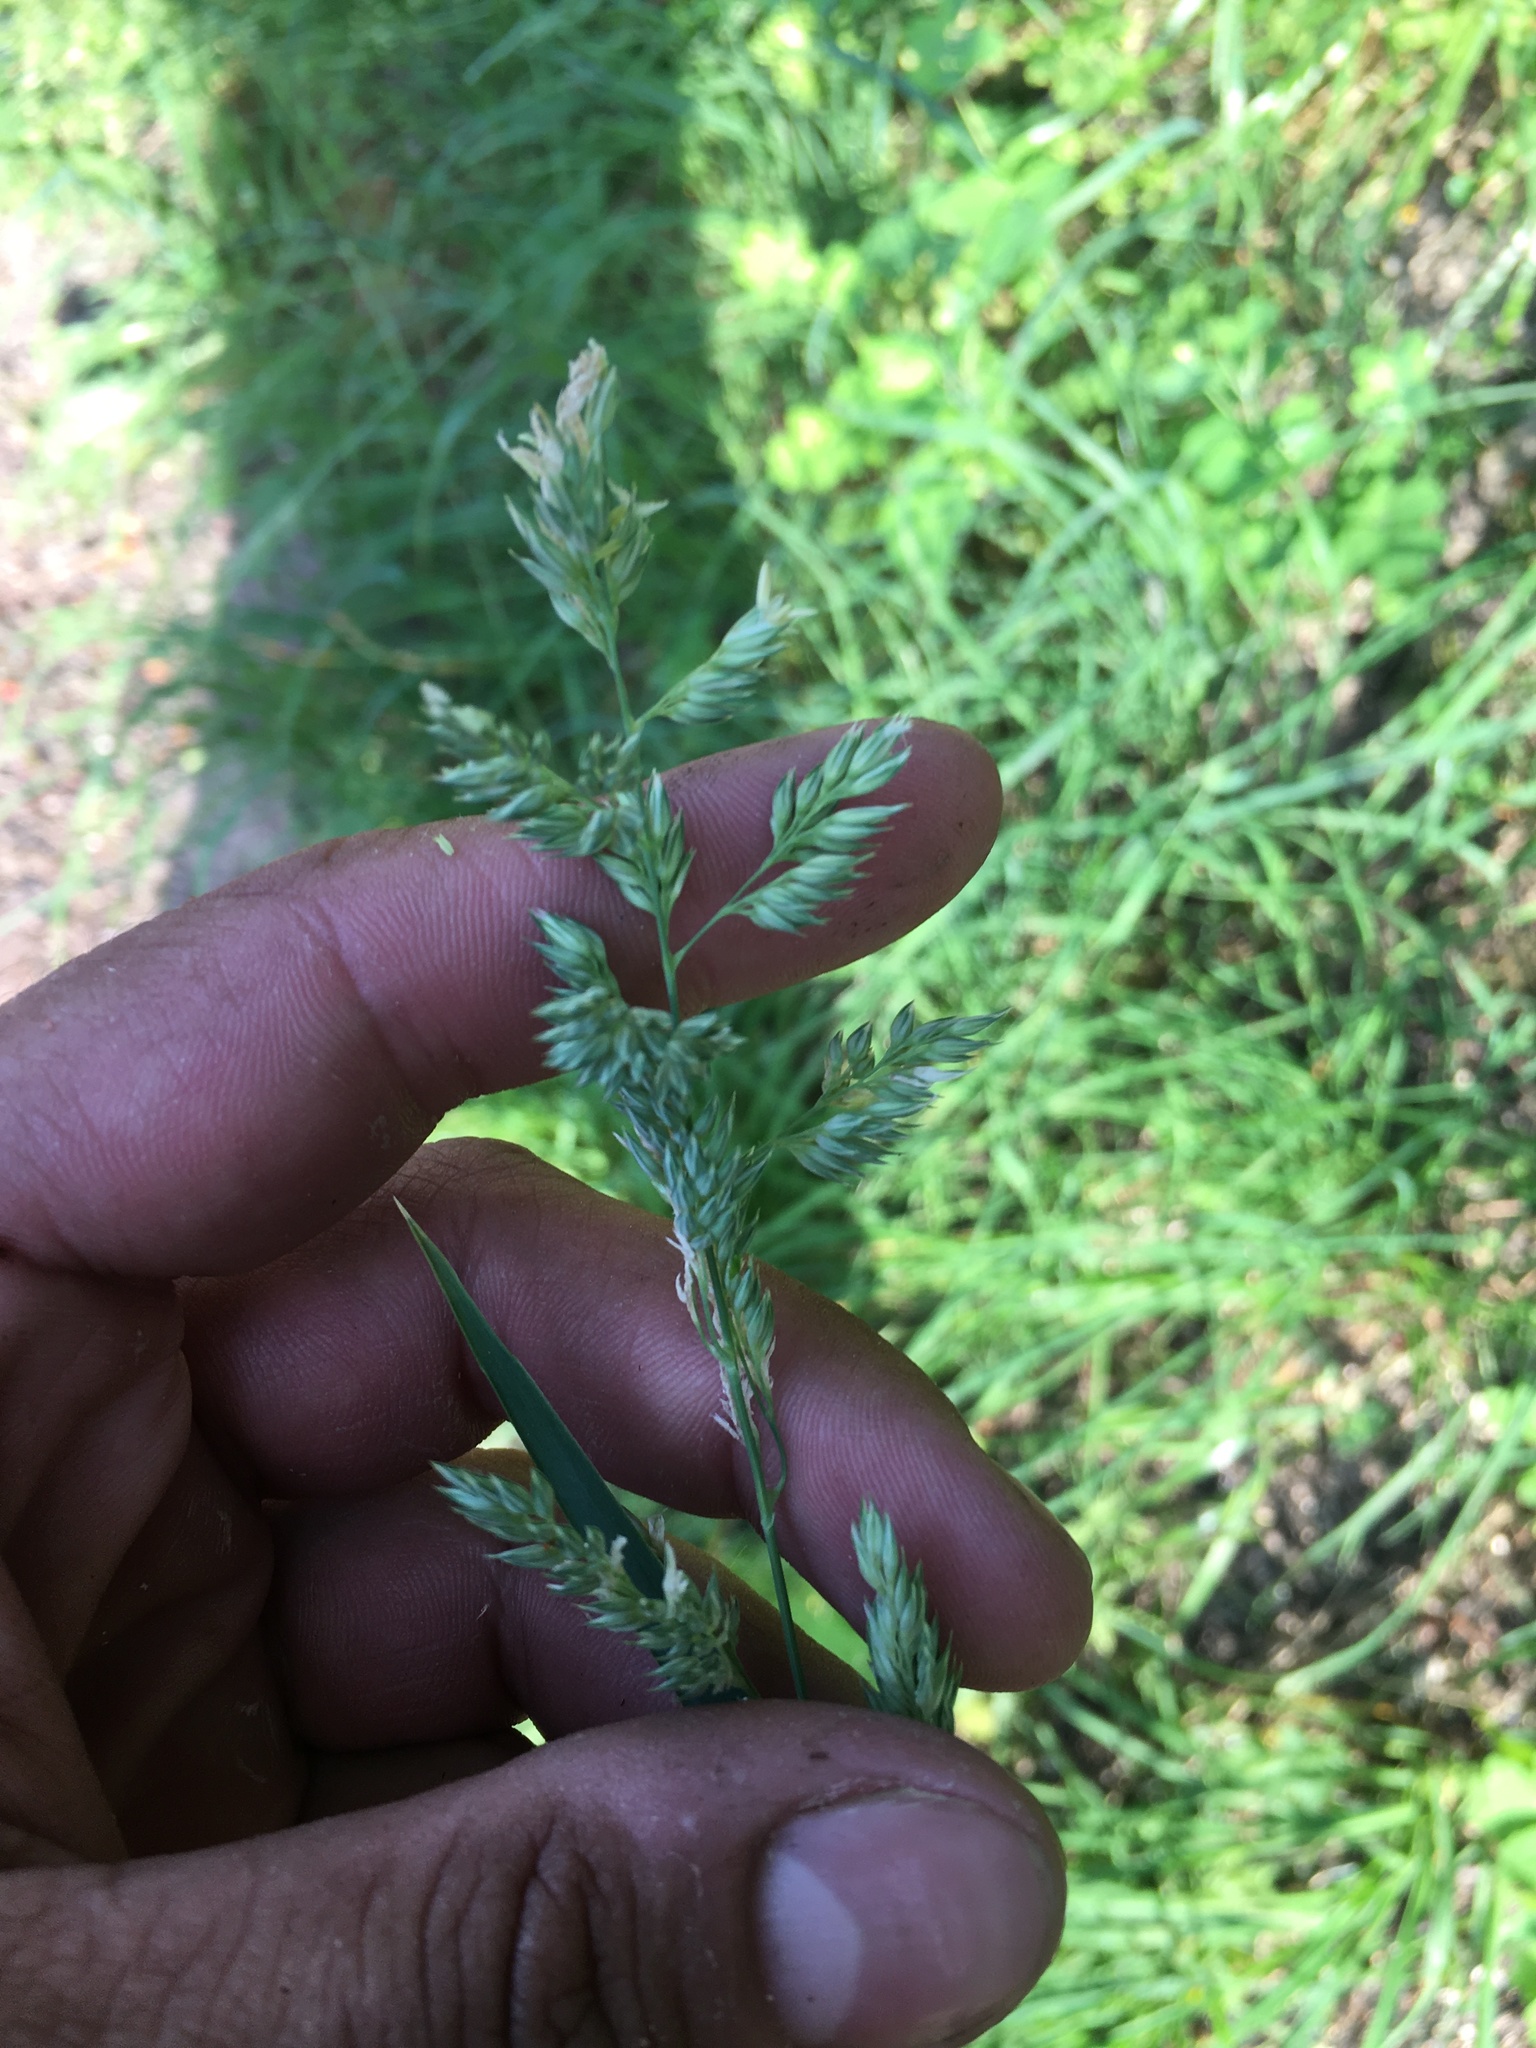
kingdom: Plantae
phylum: Tracheophyta
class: Liliopsida
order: Poales
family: Poaceae
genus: Phalaris
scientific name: Phalaris arundinacea
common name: Reed canary-grass
